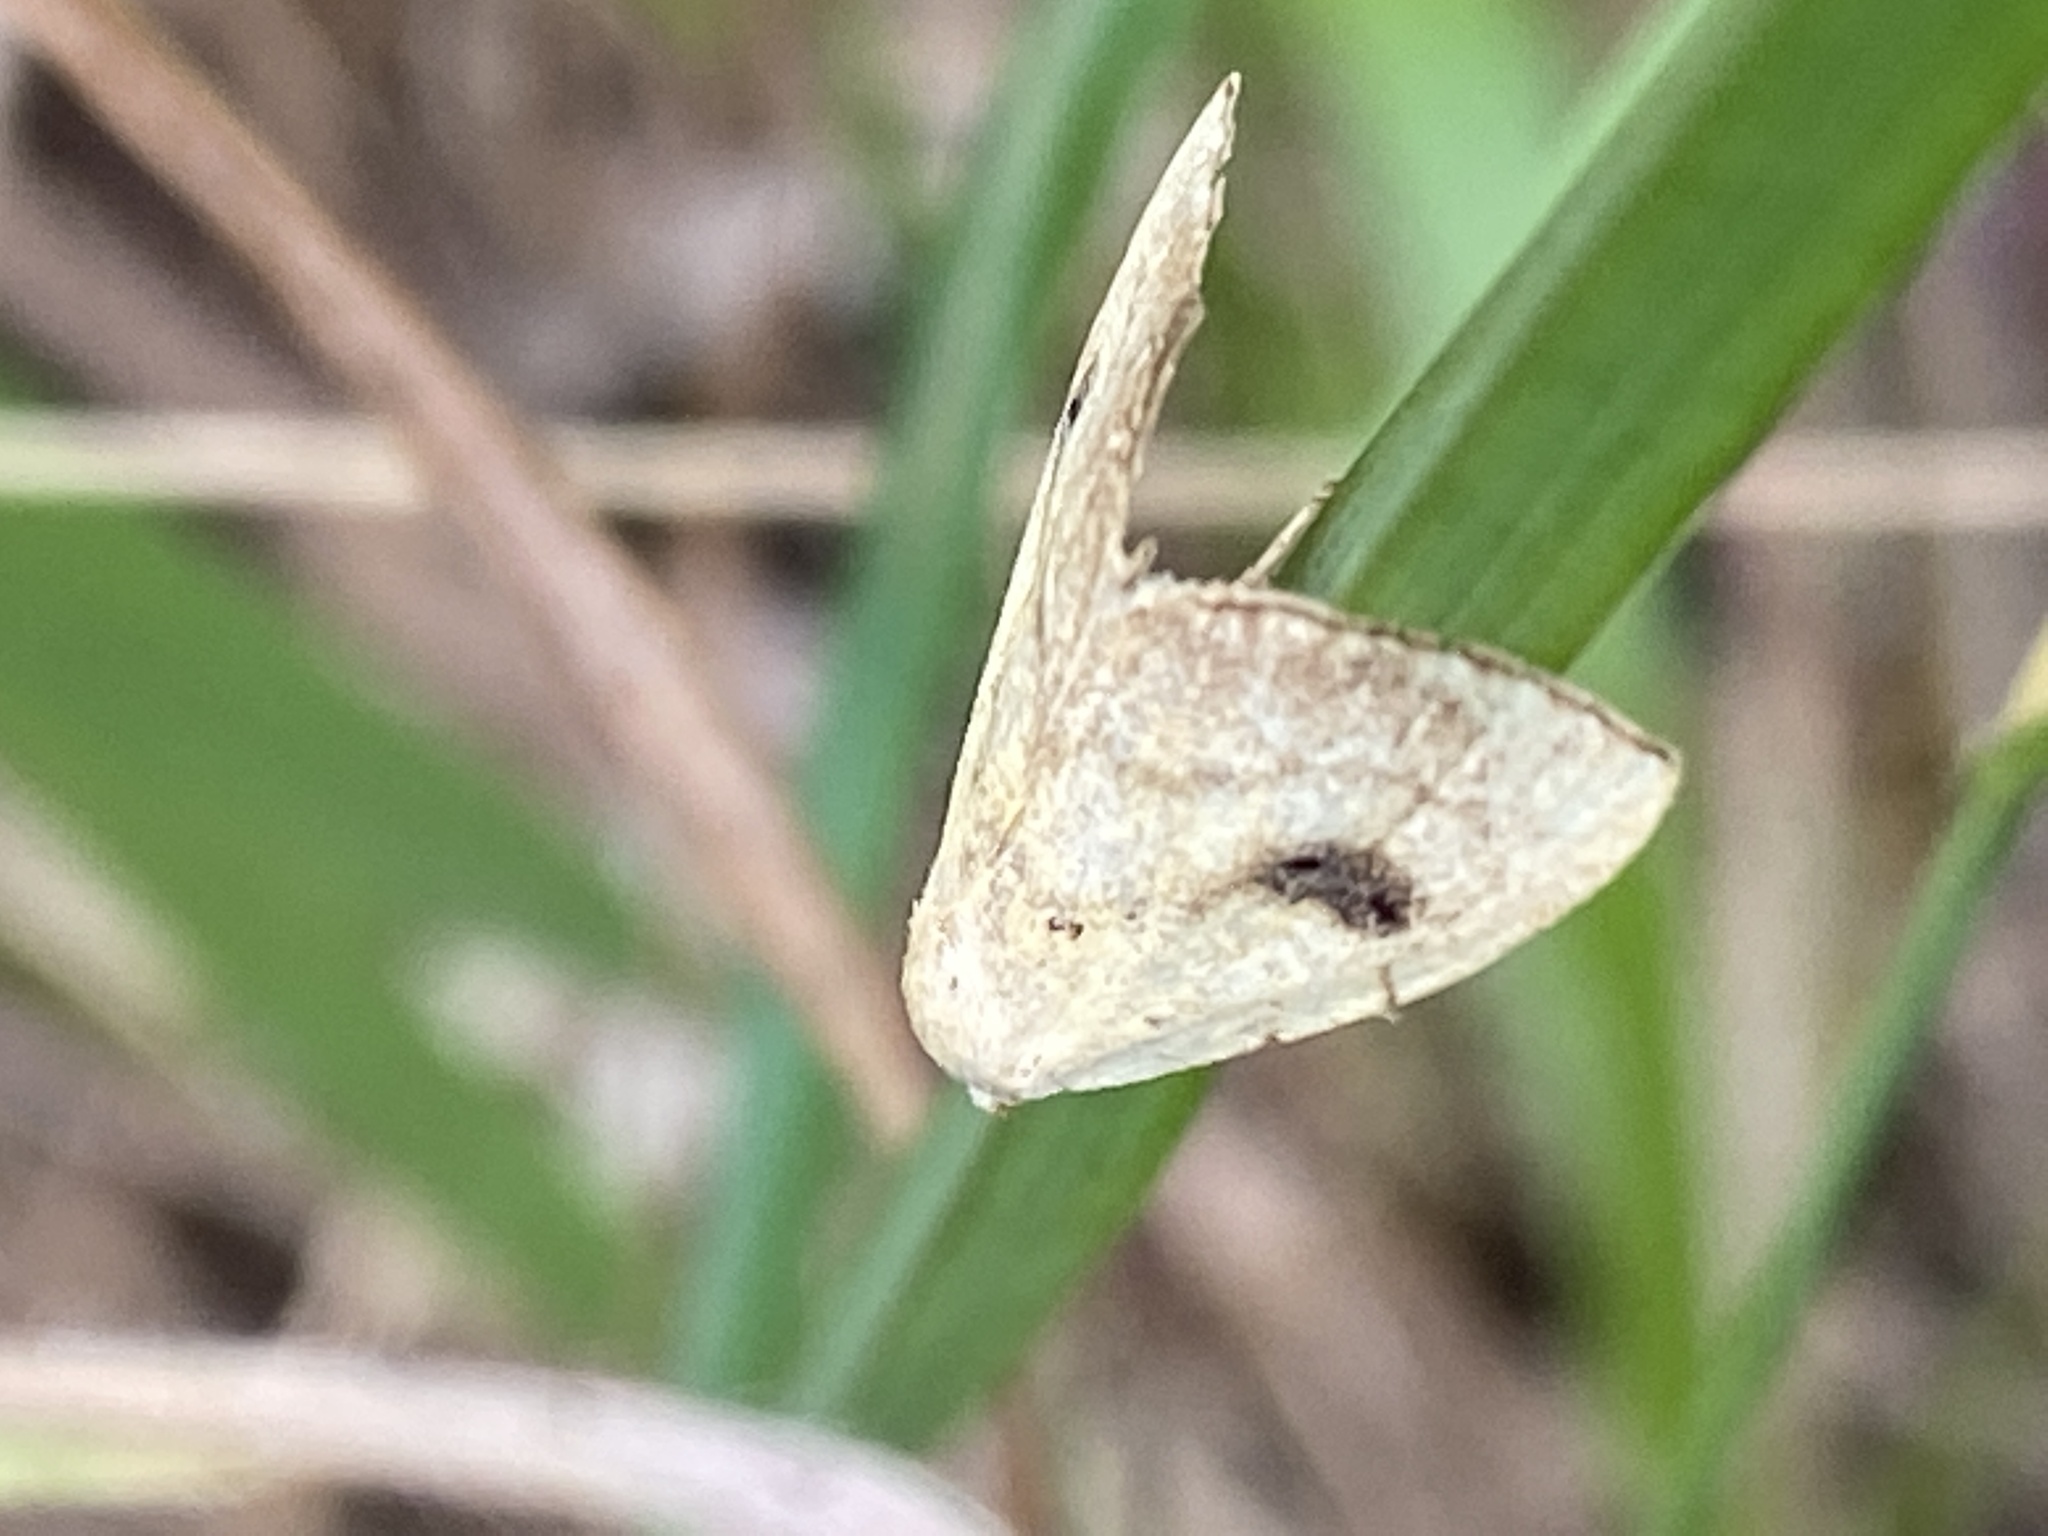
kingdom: Animalia
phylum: Arthropoda
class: Insecta
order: Lepidoptera
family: Erebidae
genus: Rivula
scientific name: Rivula sericealis
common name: Straw dot
